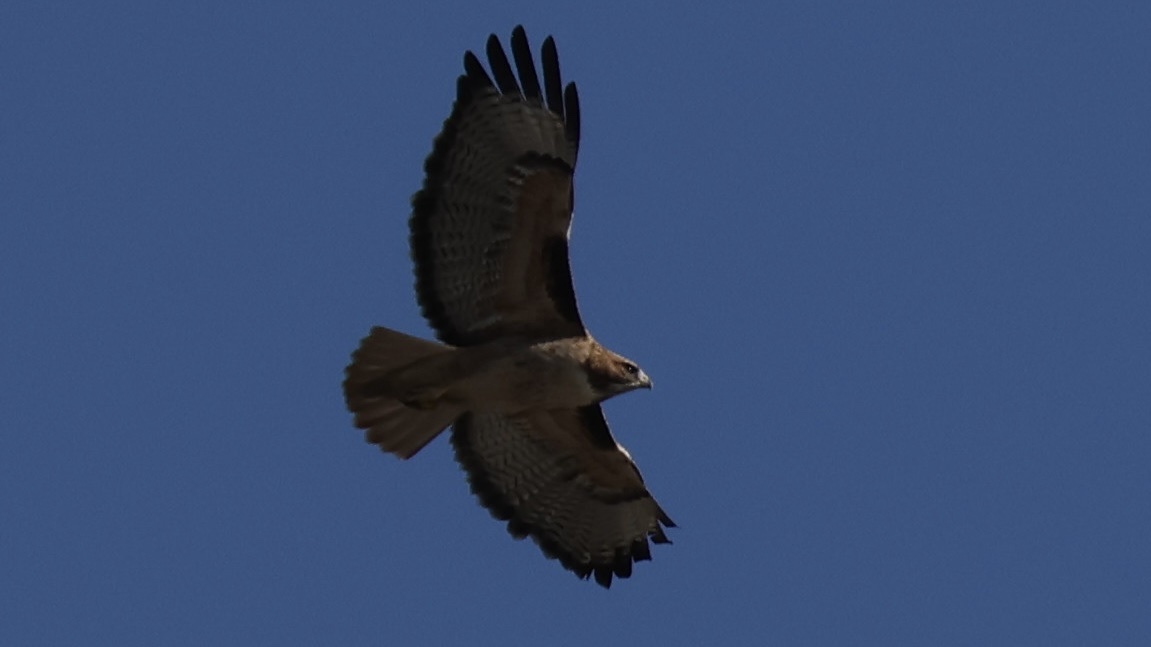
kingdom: Animalia
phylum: Chordata
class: Aves
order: Accipitriformes
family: Accipitridae
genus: Buteo
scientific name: Buteo jamaicensis
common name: Red-tailed hawk
